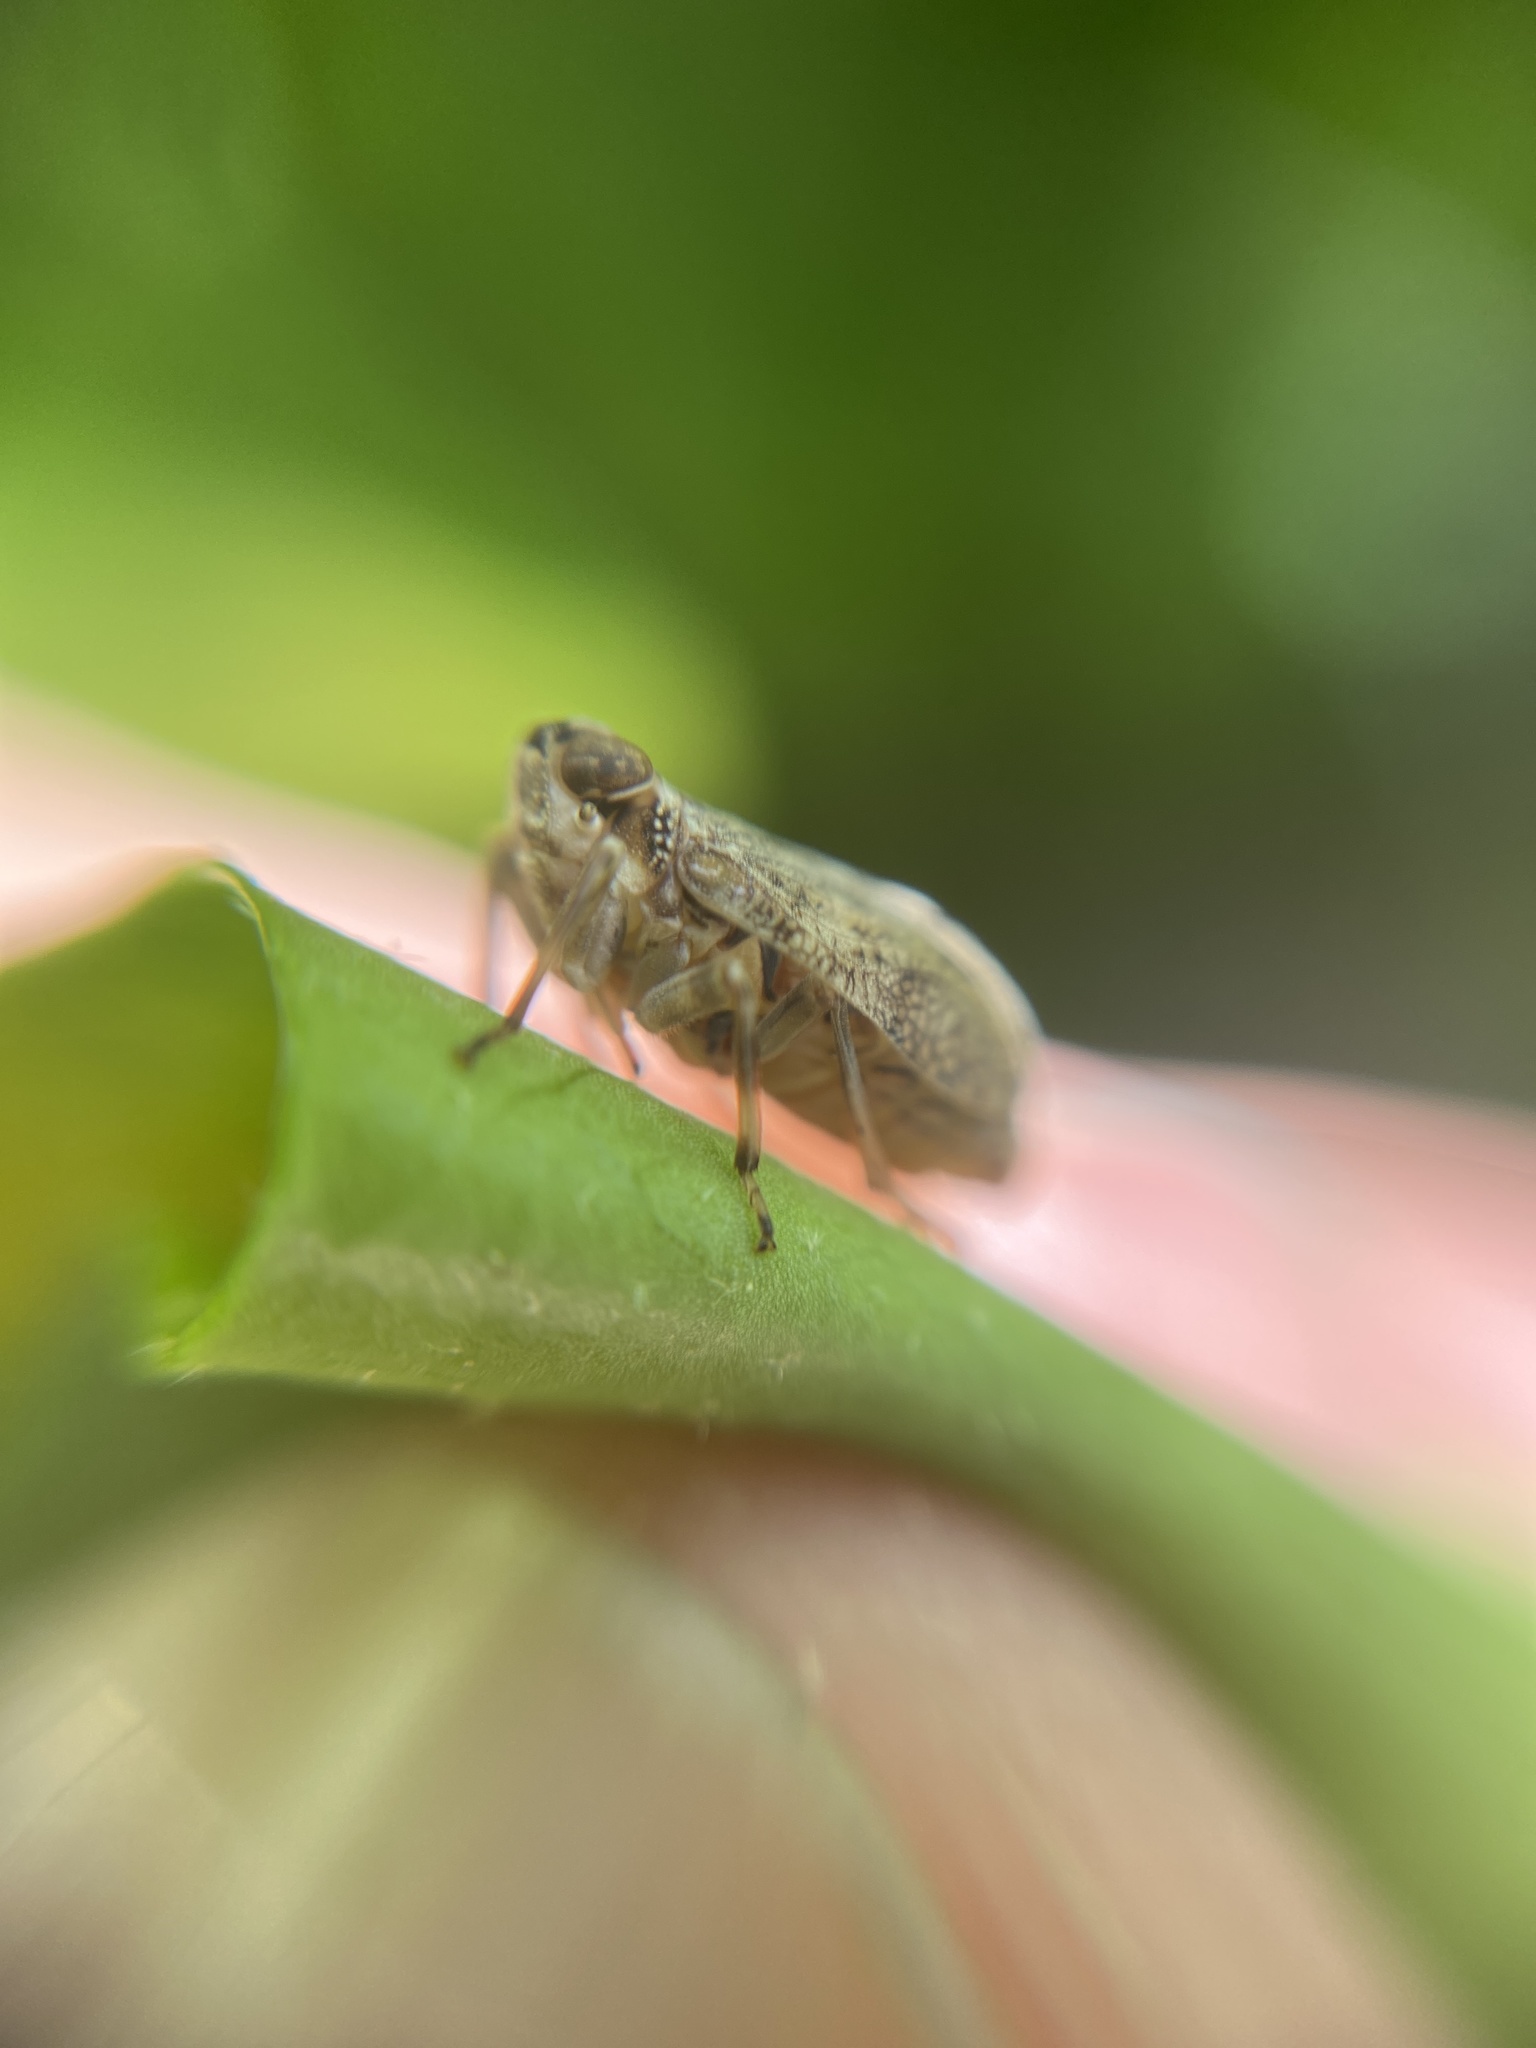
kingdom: Animalia
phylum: Arthropoda
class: Insecta
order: Hemiptera
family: Issidae
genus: Issus
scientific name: Issus coleoptratus
